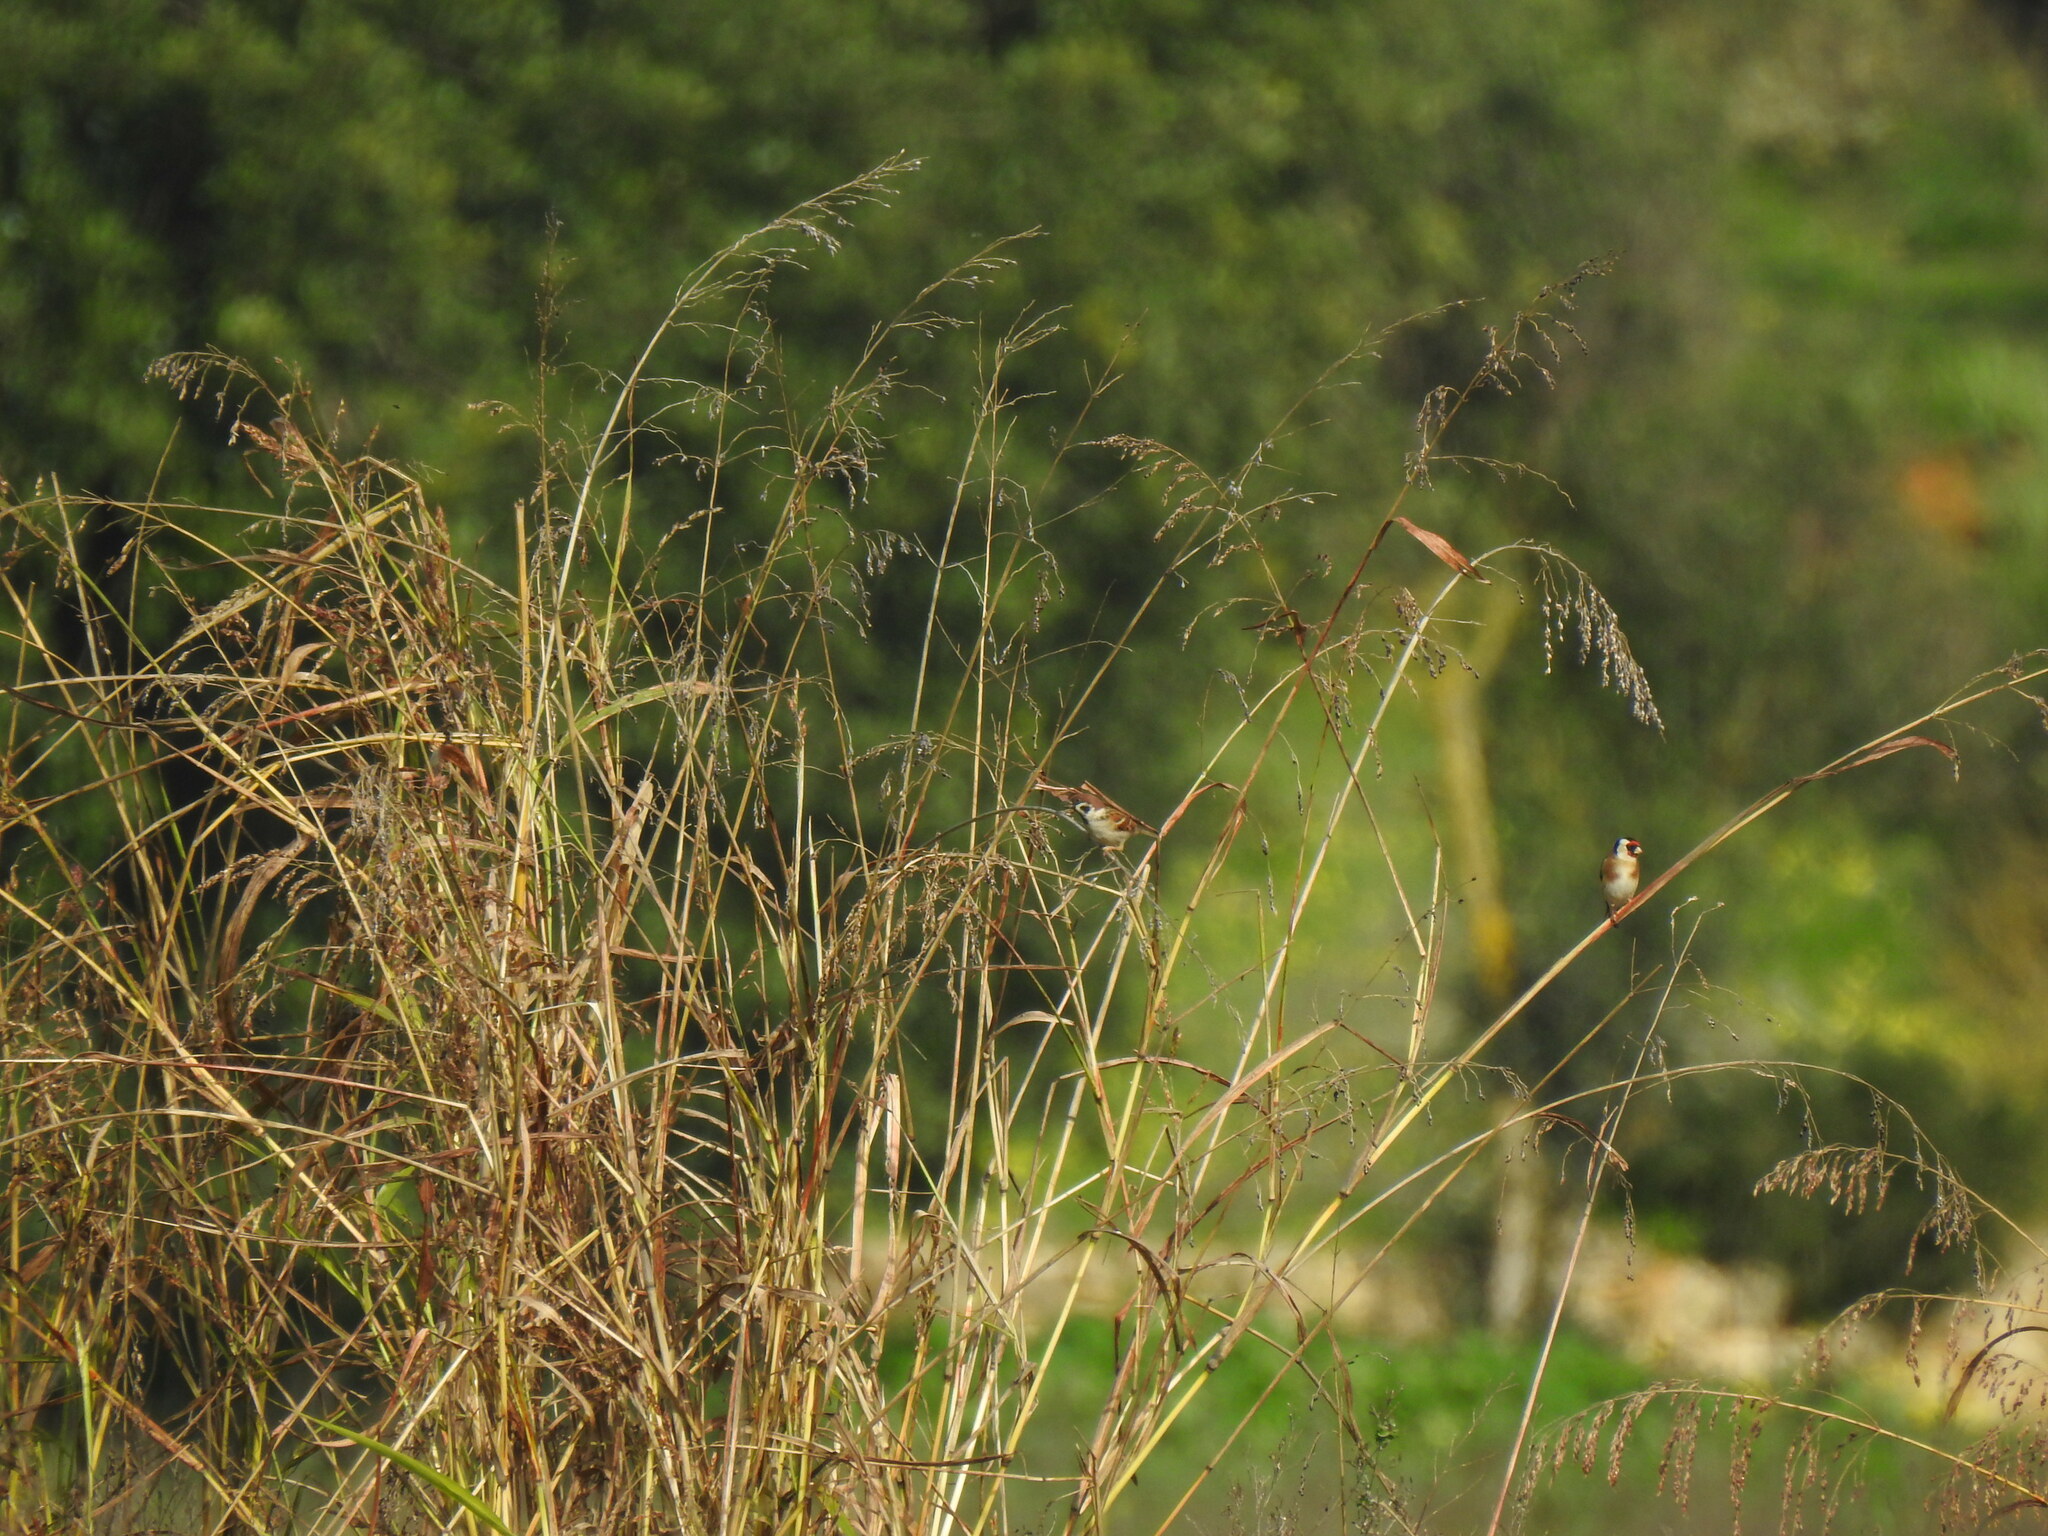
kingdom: Plantae
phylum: Tracheophyta
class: Liliopsida
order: Poales
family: Poaceae
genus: Sorghum
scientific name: Sorghum halepense
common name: Johnson-grass
